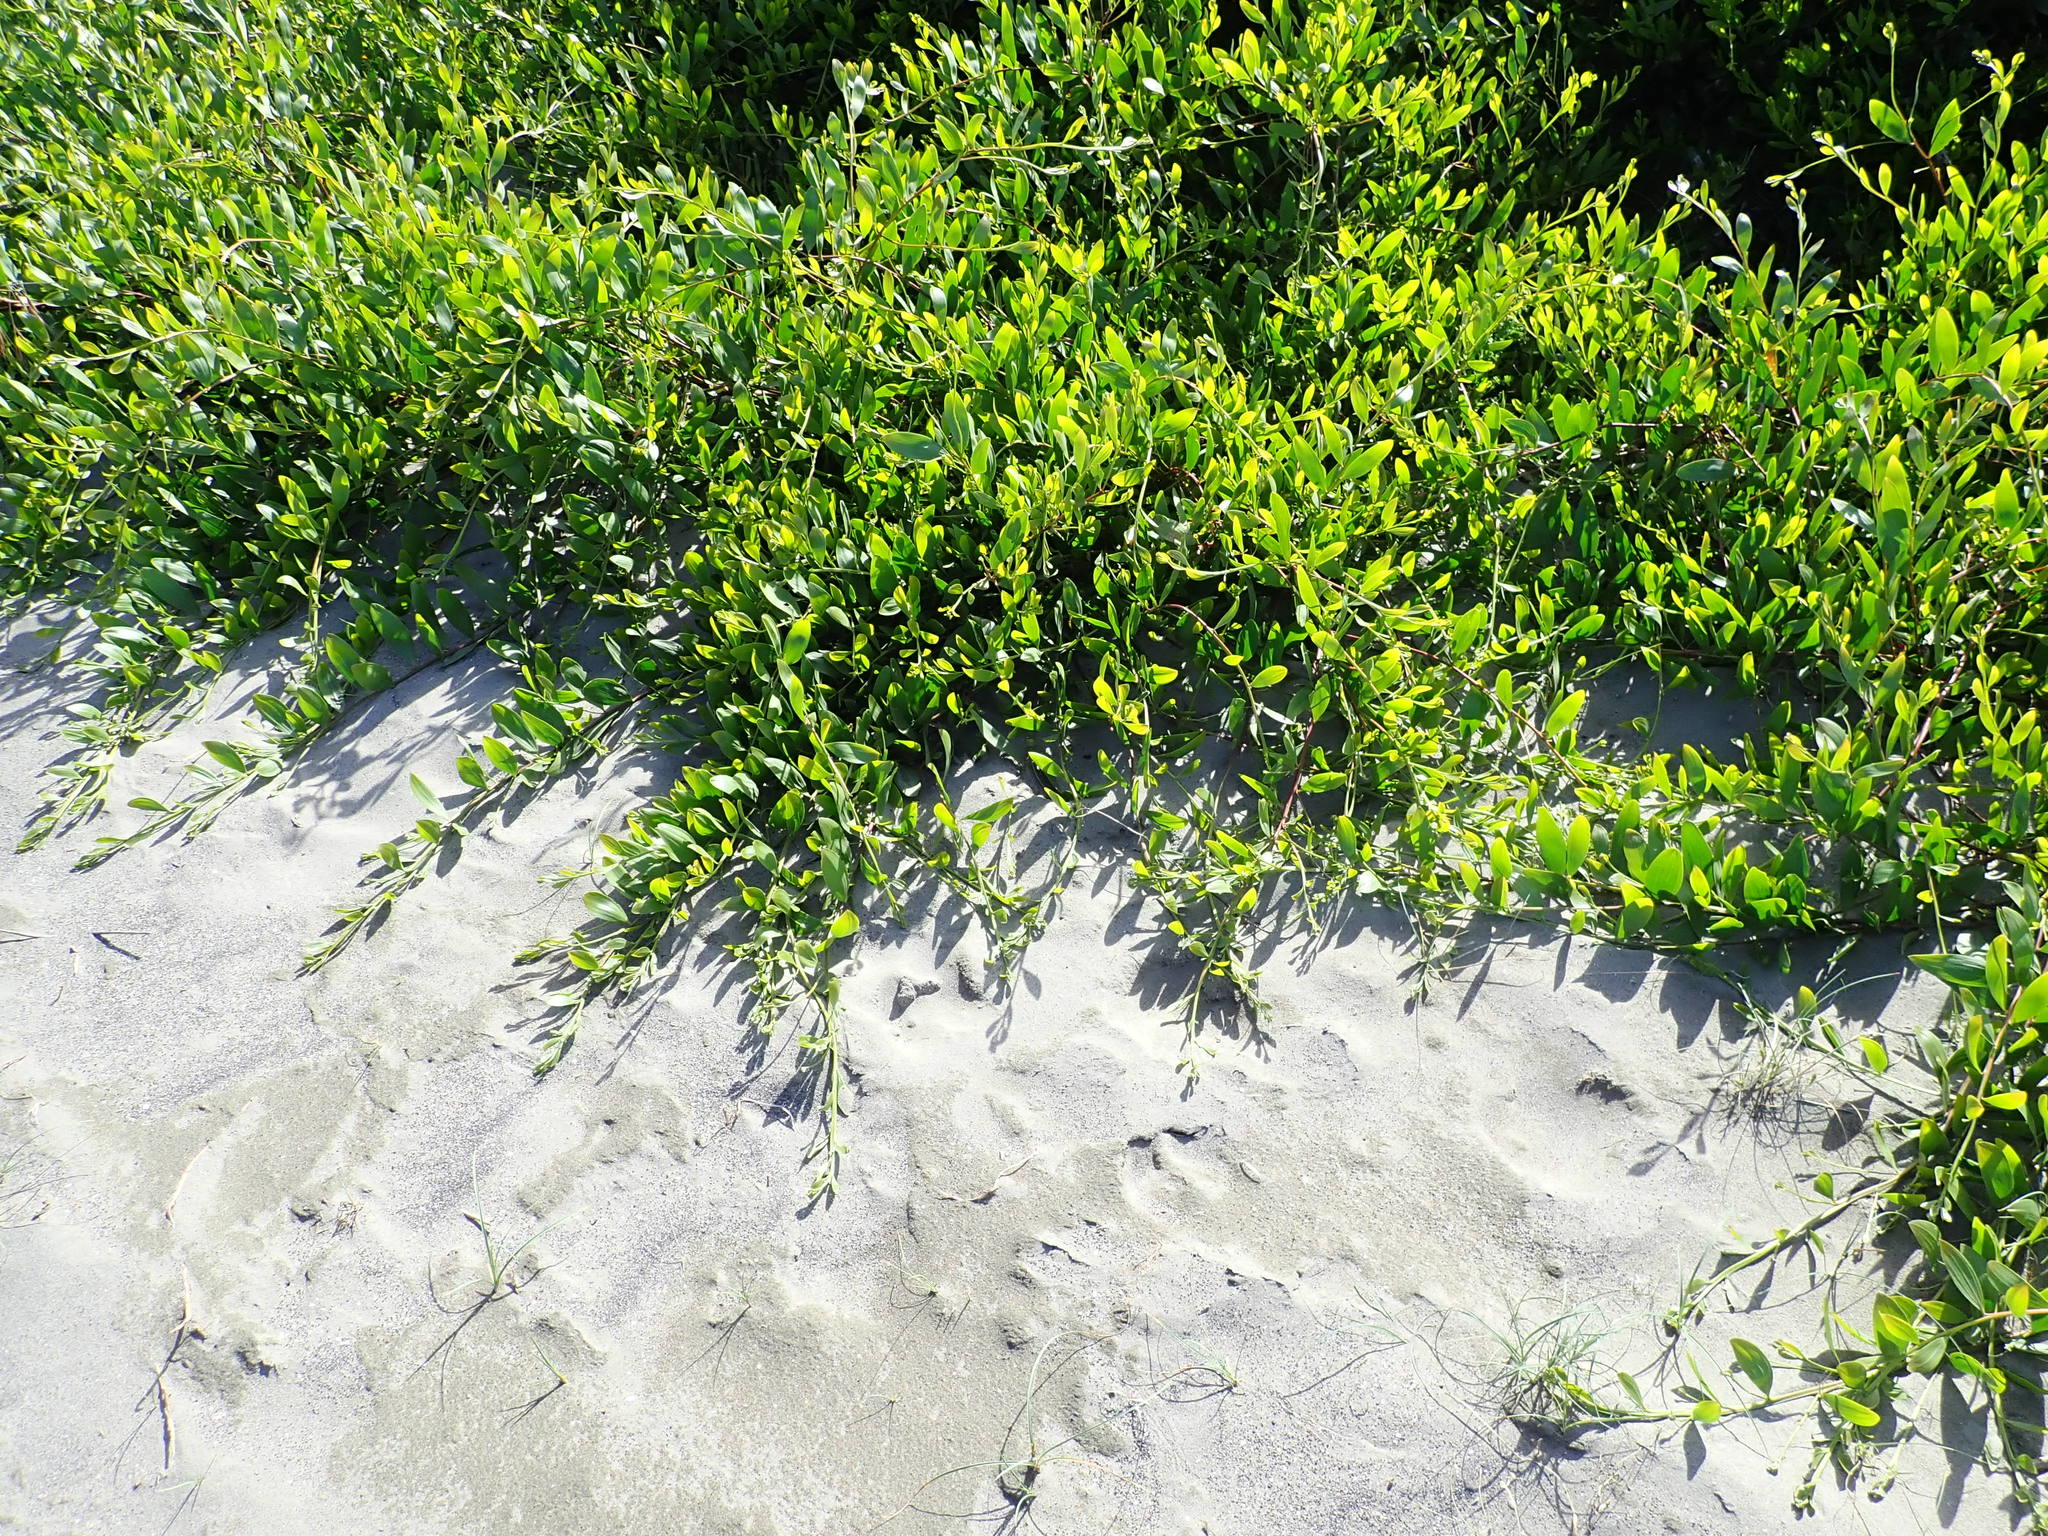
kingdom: Plantae
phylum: Tracheophyta
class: Magnoliopsida
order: Fabales
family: Fabaceae
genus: Acacia
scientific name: Acacia longifolia
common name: Sydney golden wattle
